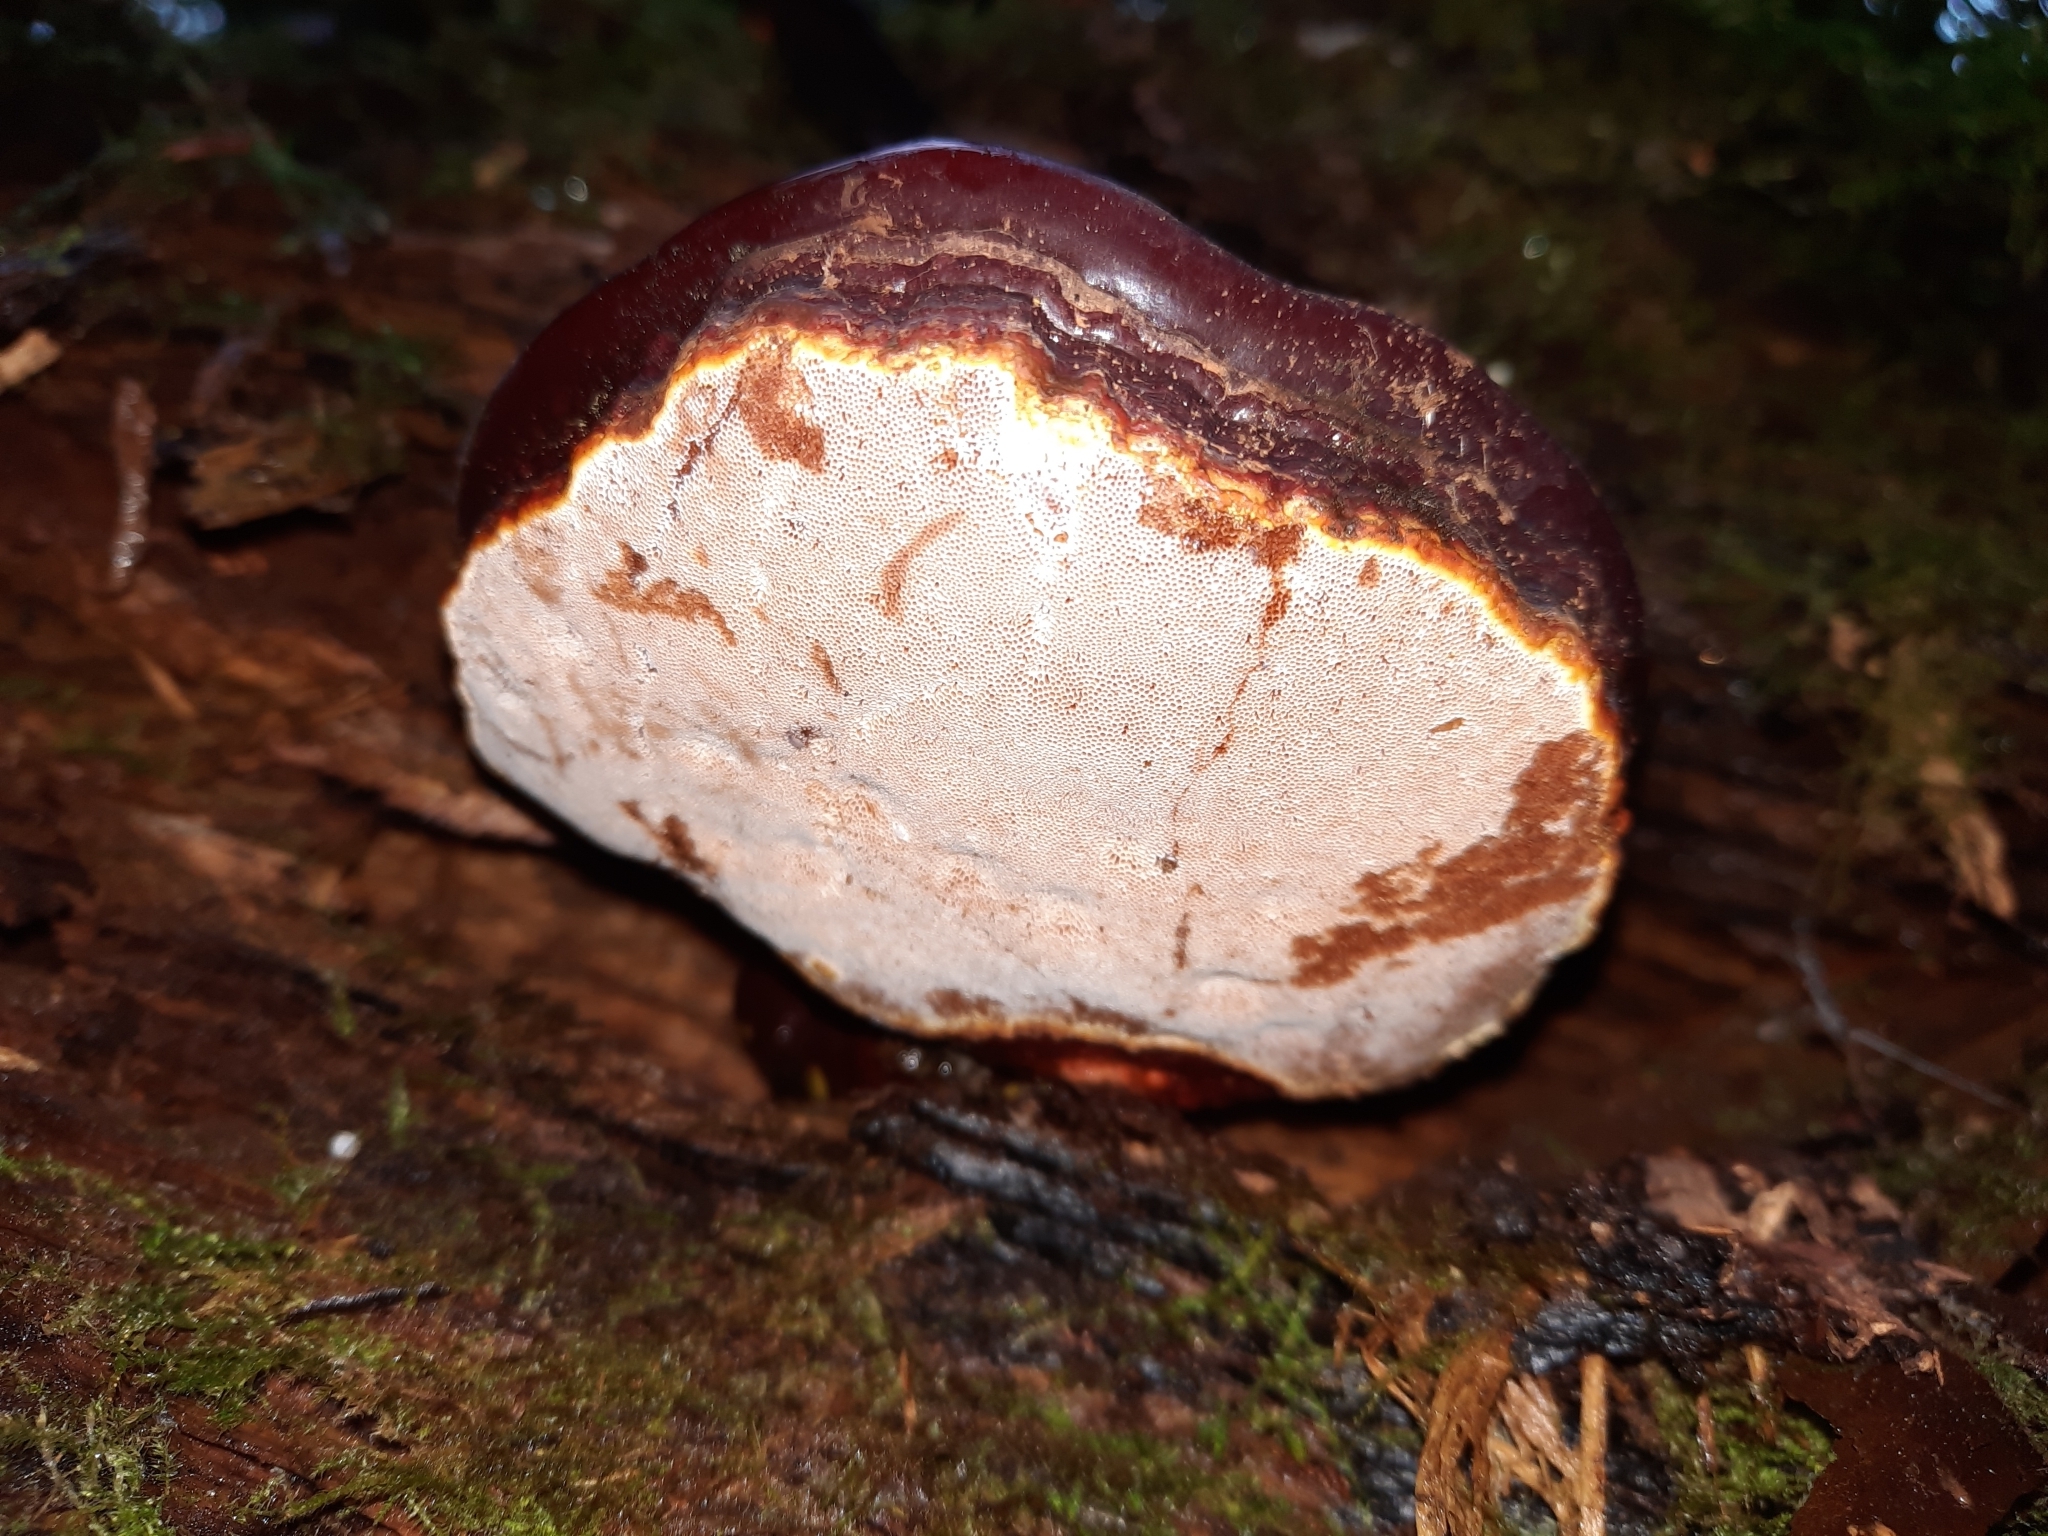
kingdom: Fungi
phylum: Basidiomycota
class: Agaricomycetes
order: Polyporales
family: Polyporaceae
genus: Ganoderma
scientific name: Ganoderma oregonense
